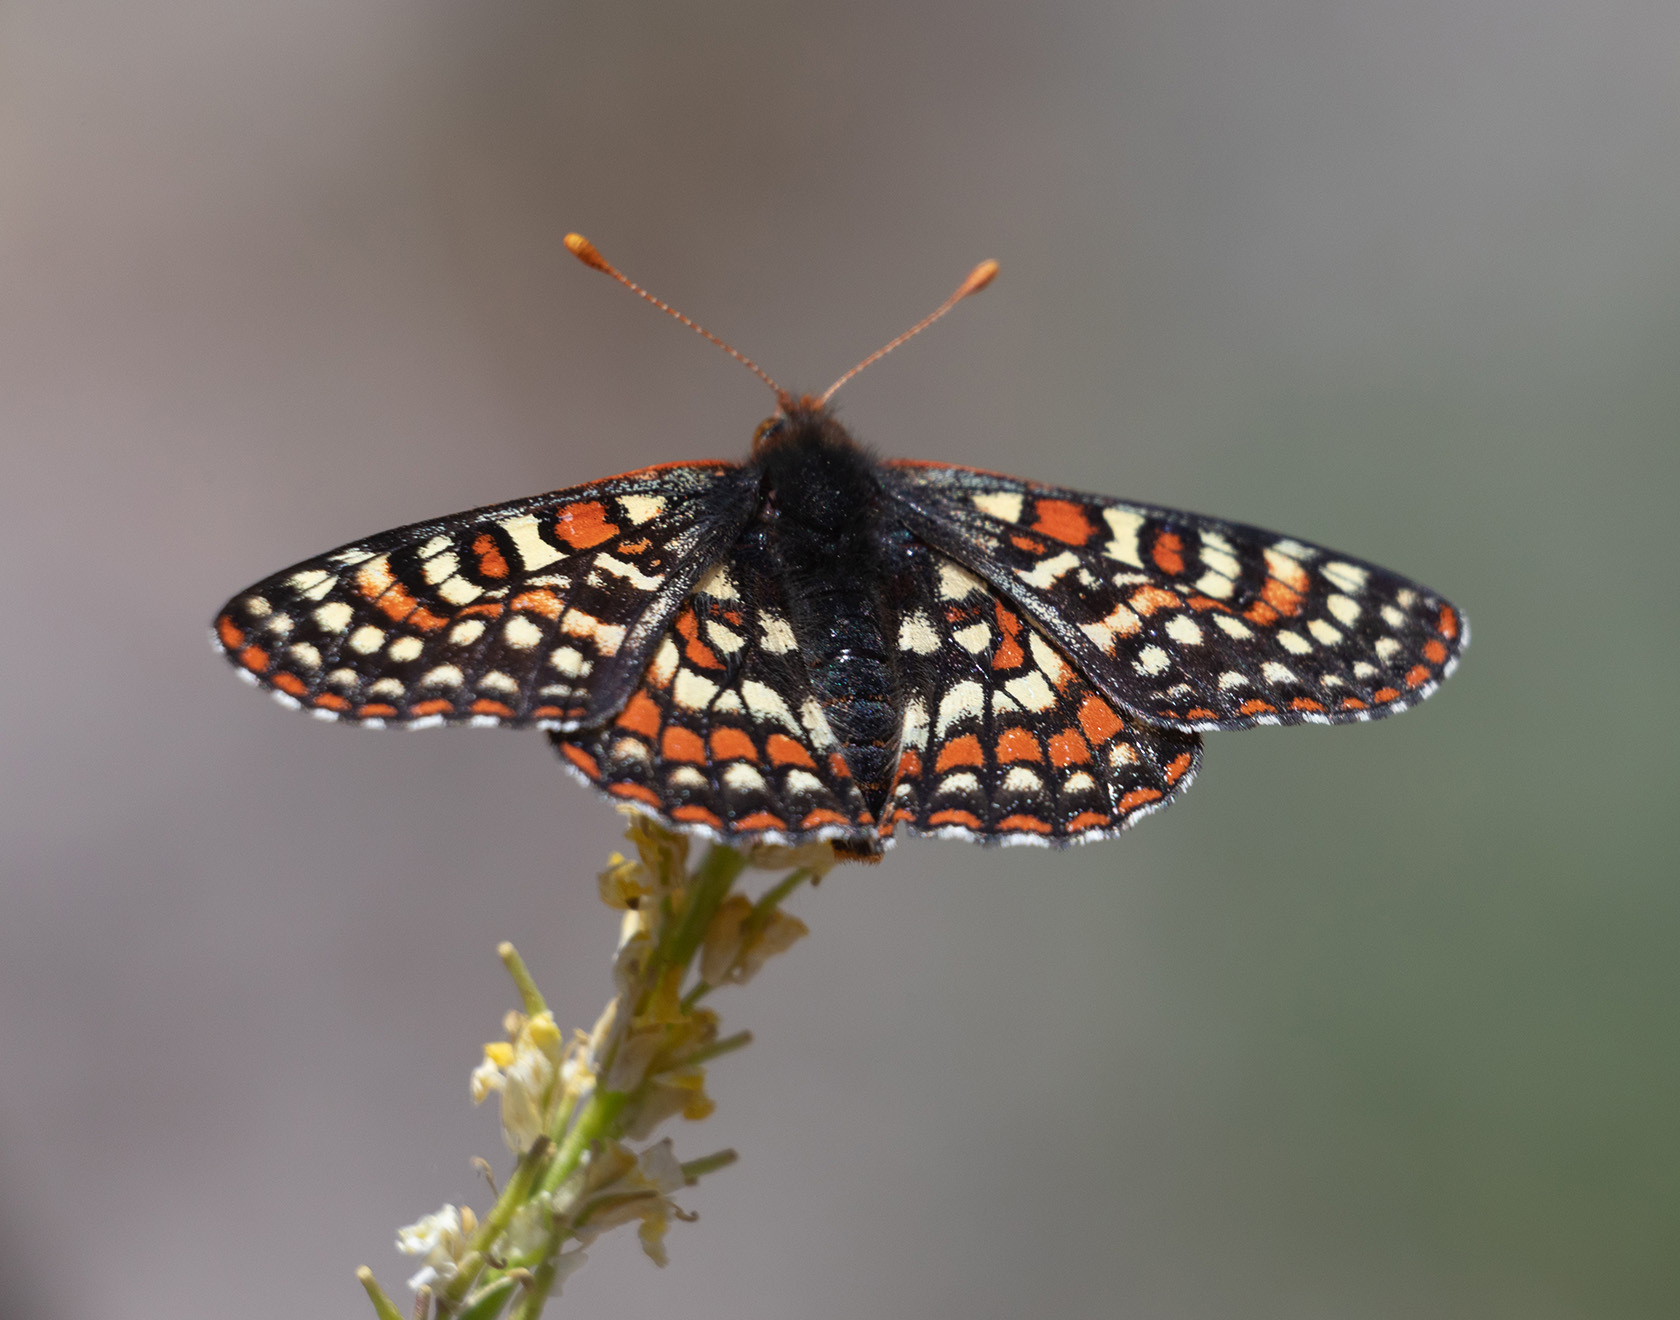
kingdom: Animalia
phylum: Arthropoda
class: Insecta
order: Lepidoptera
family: Nymphalidae
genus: Occidryas
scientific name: Occidryas editha
